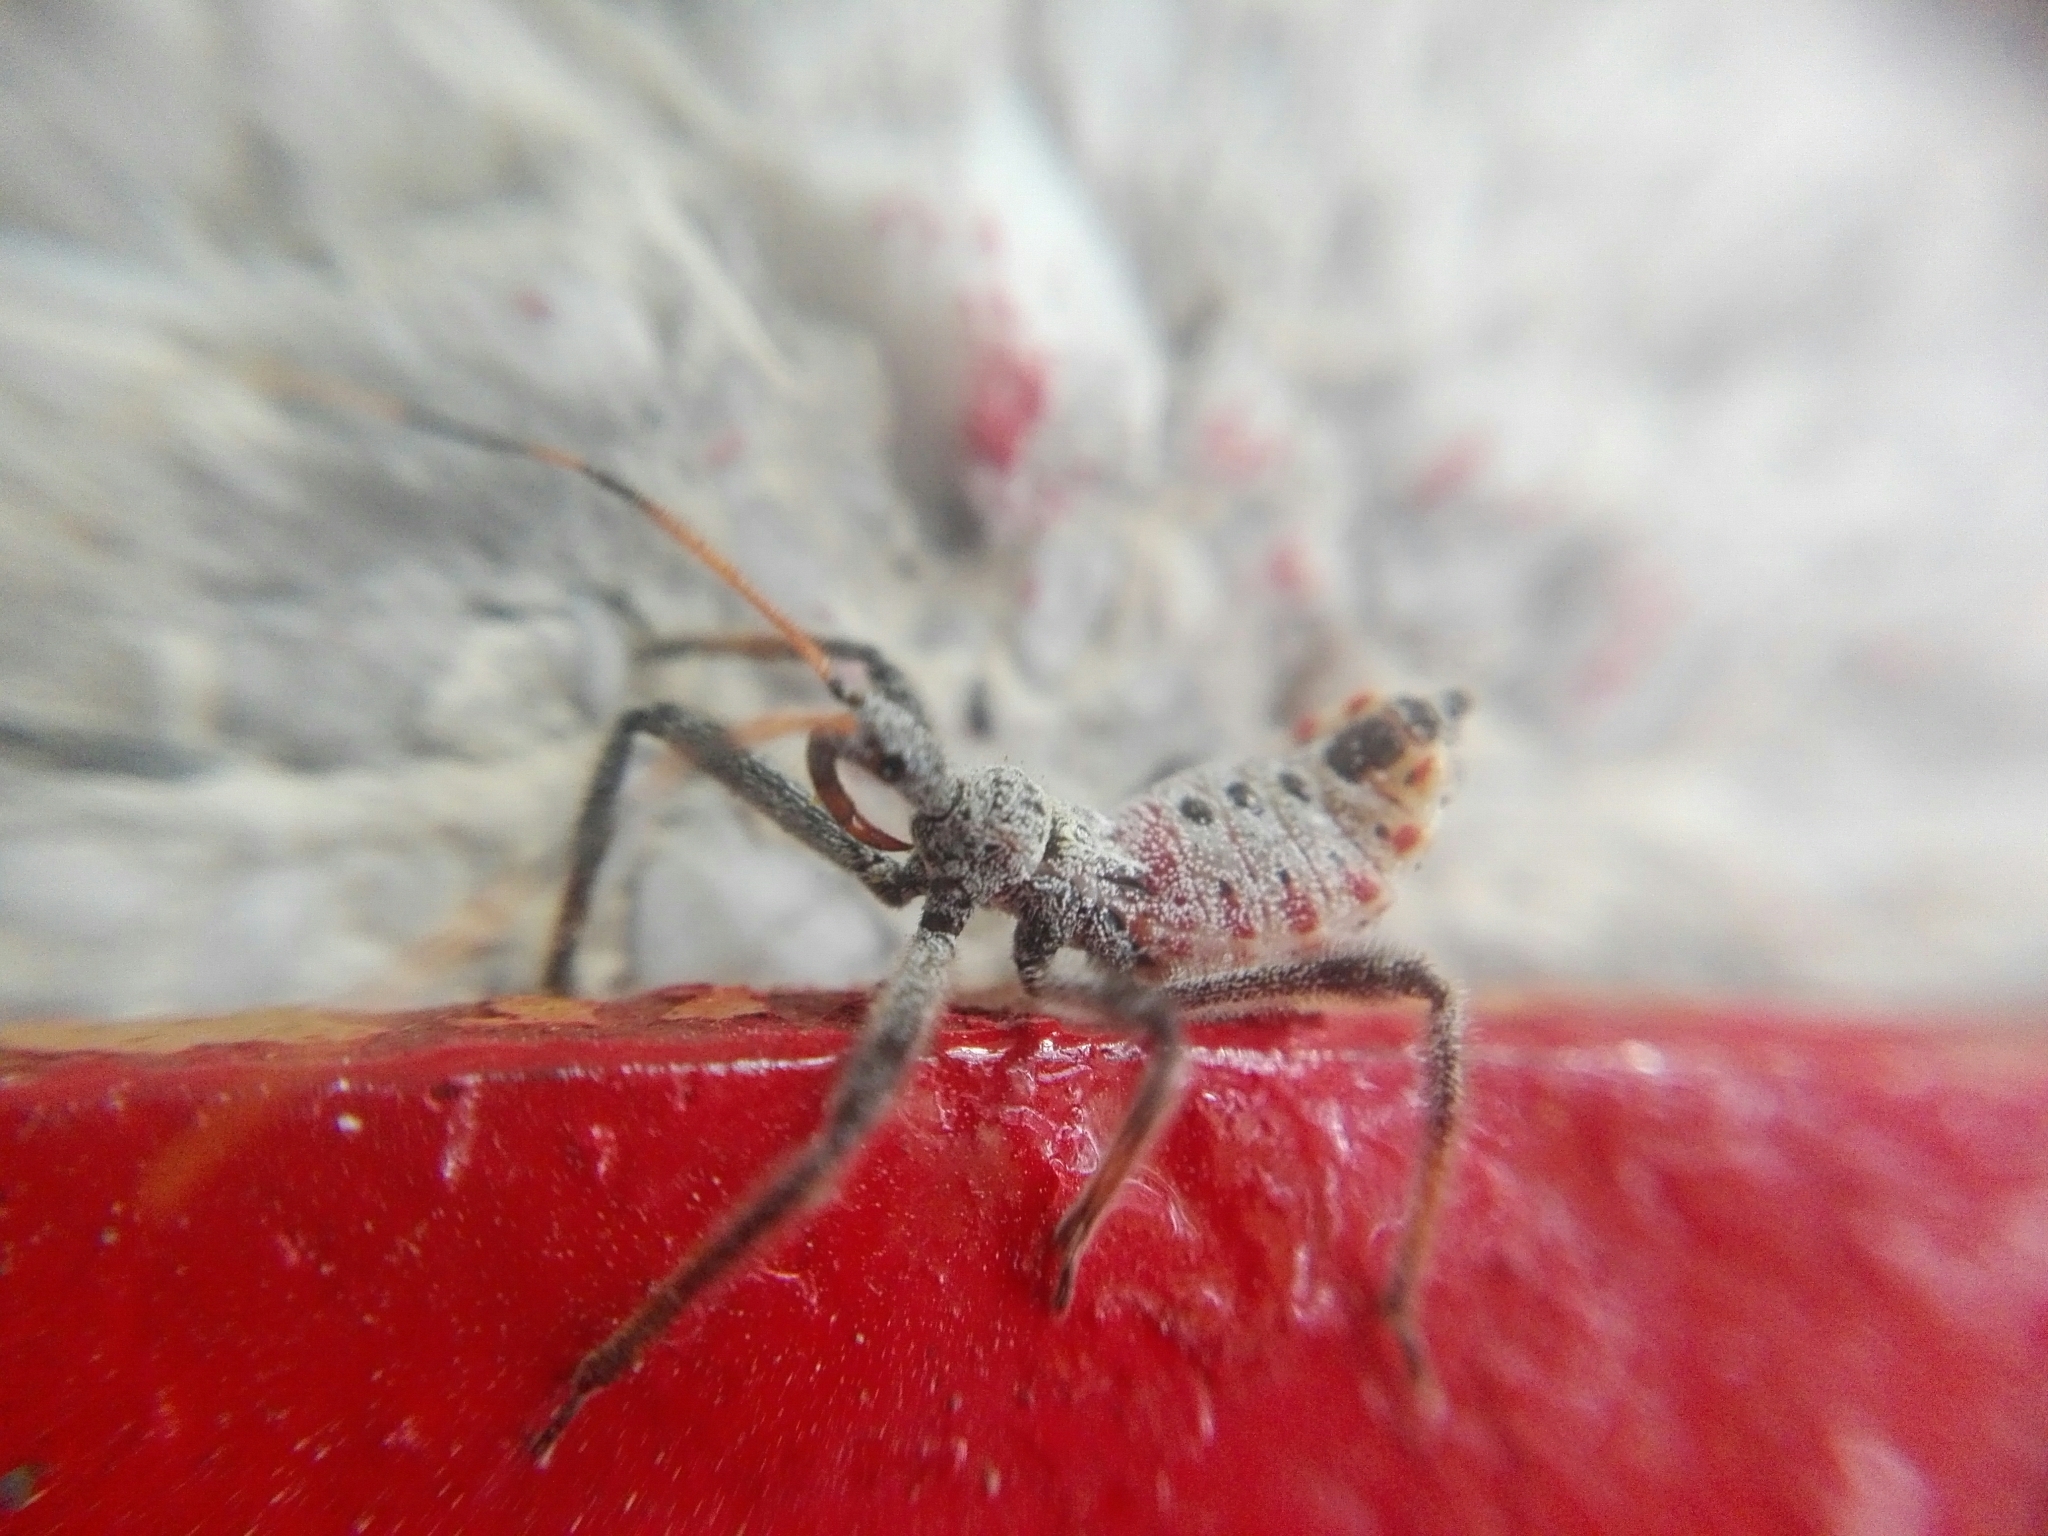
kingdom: Animalia
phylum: Arthropoda
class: Insecta
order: Hemiptera
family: Reduviidae
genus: Arilus
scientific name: Arilus cristatus
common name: North american wheel bug
